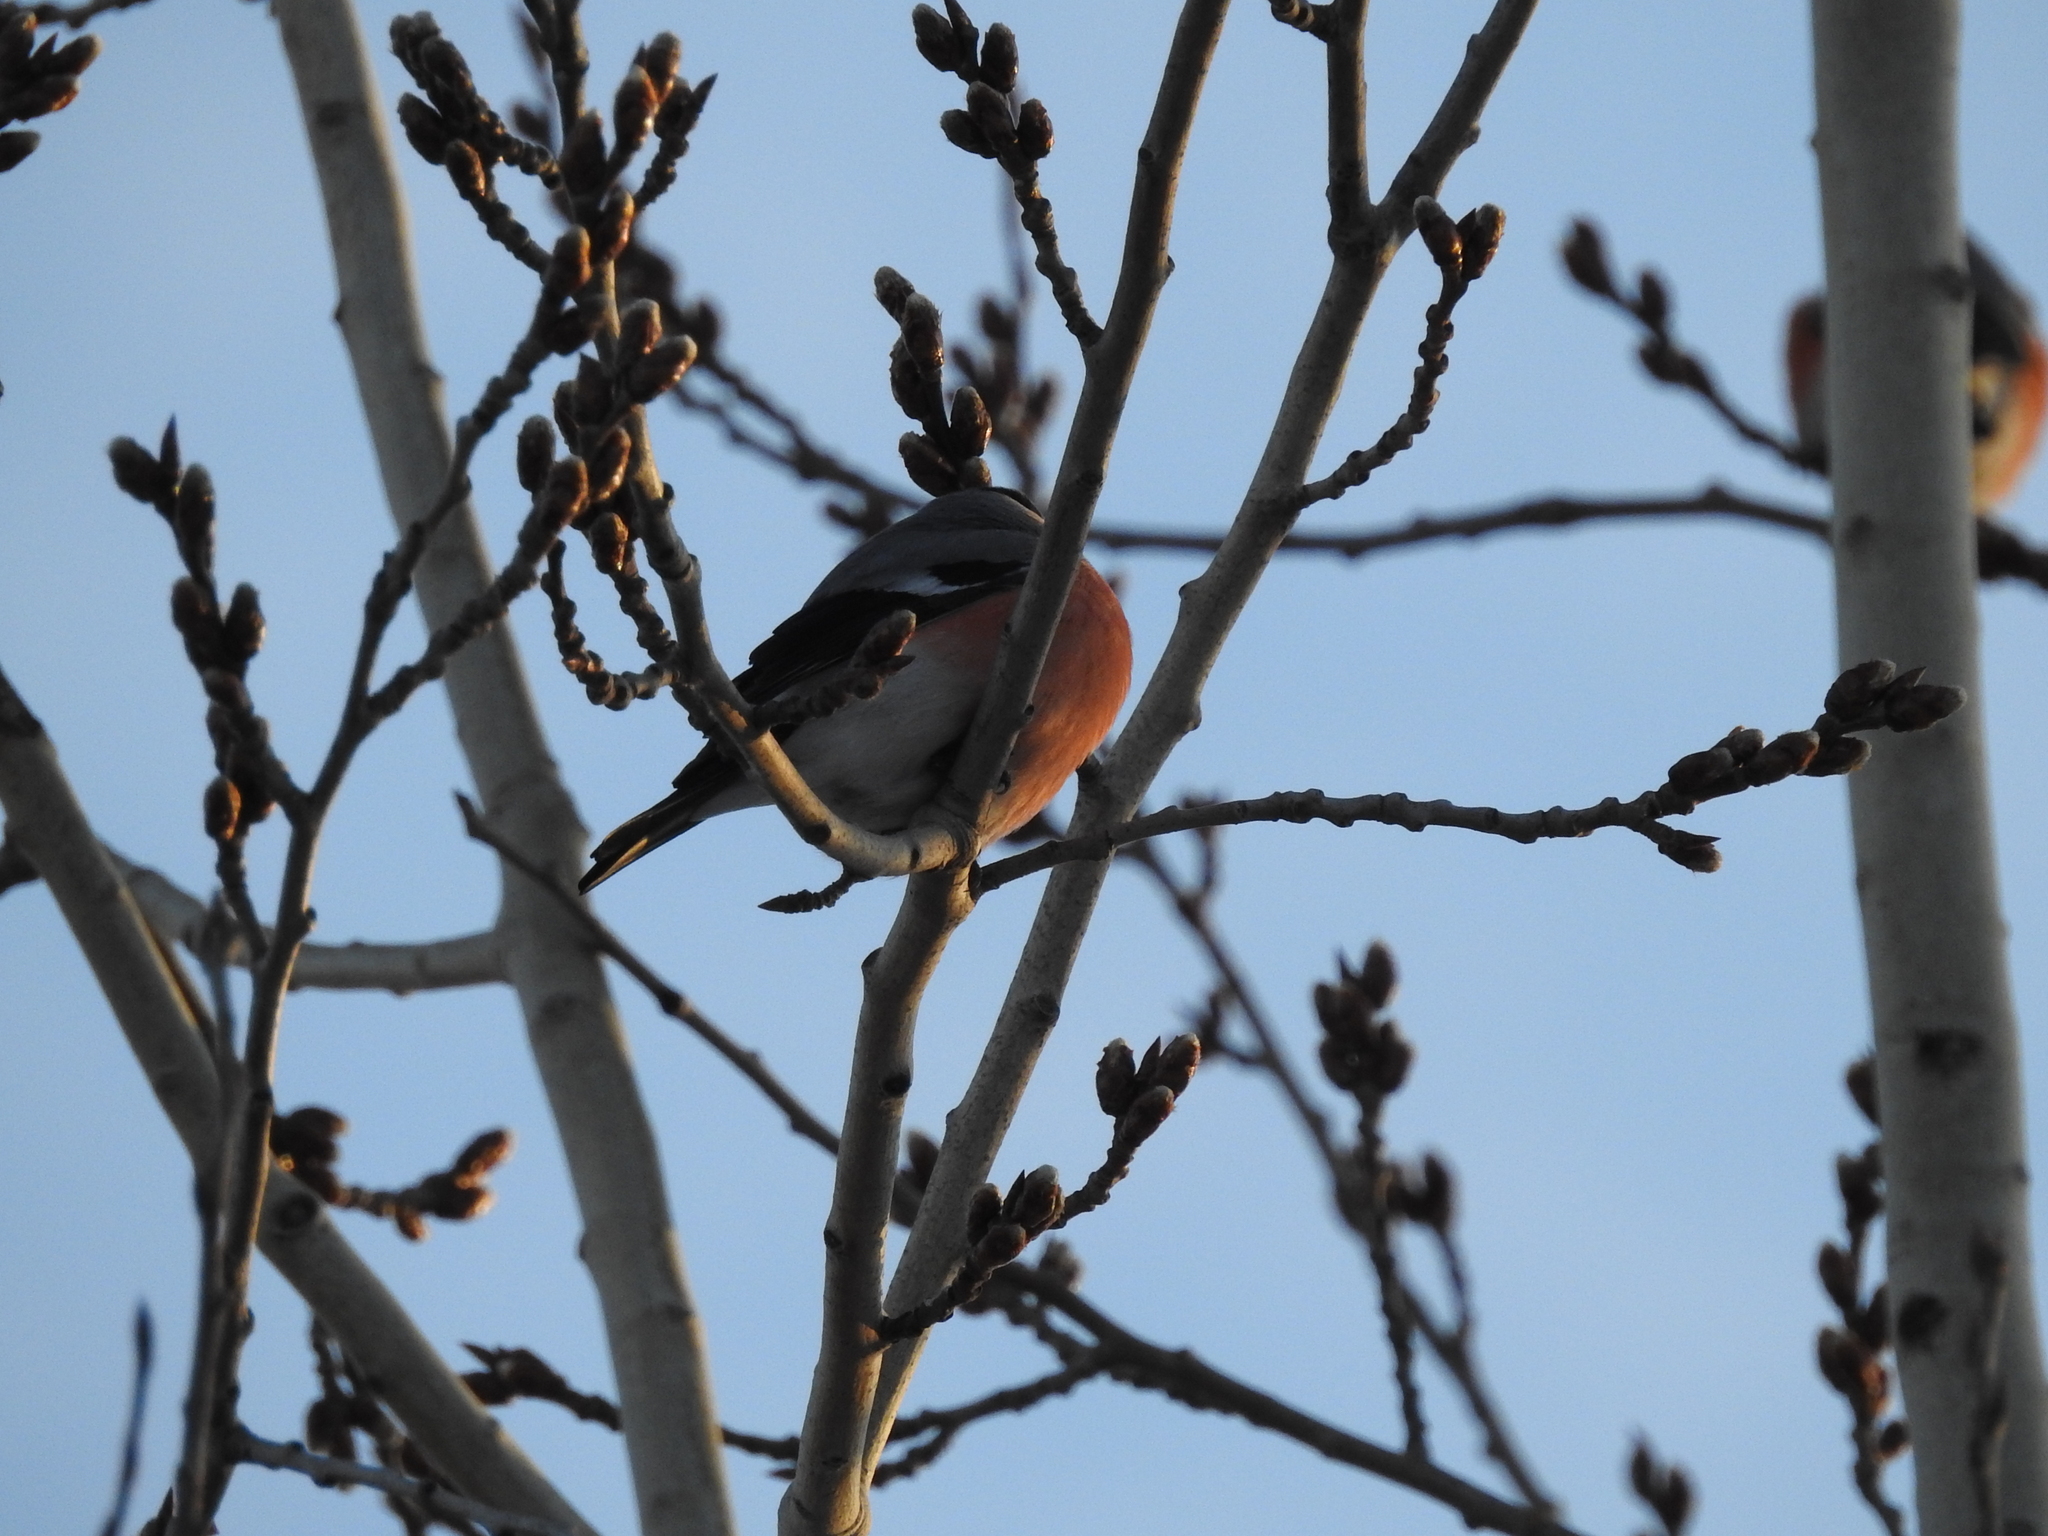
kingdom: Animalia
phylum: Chordata
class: Aves
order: Passeriformes
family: Fringillidae
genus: Pyrrhula
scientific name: Pyrrhula pyrrhula
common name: Eurasian bullfinch
